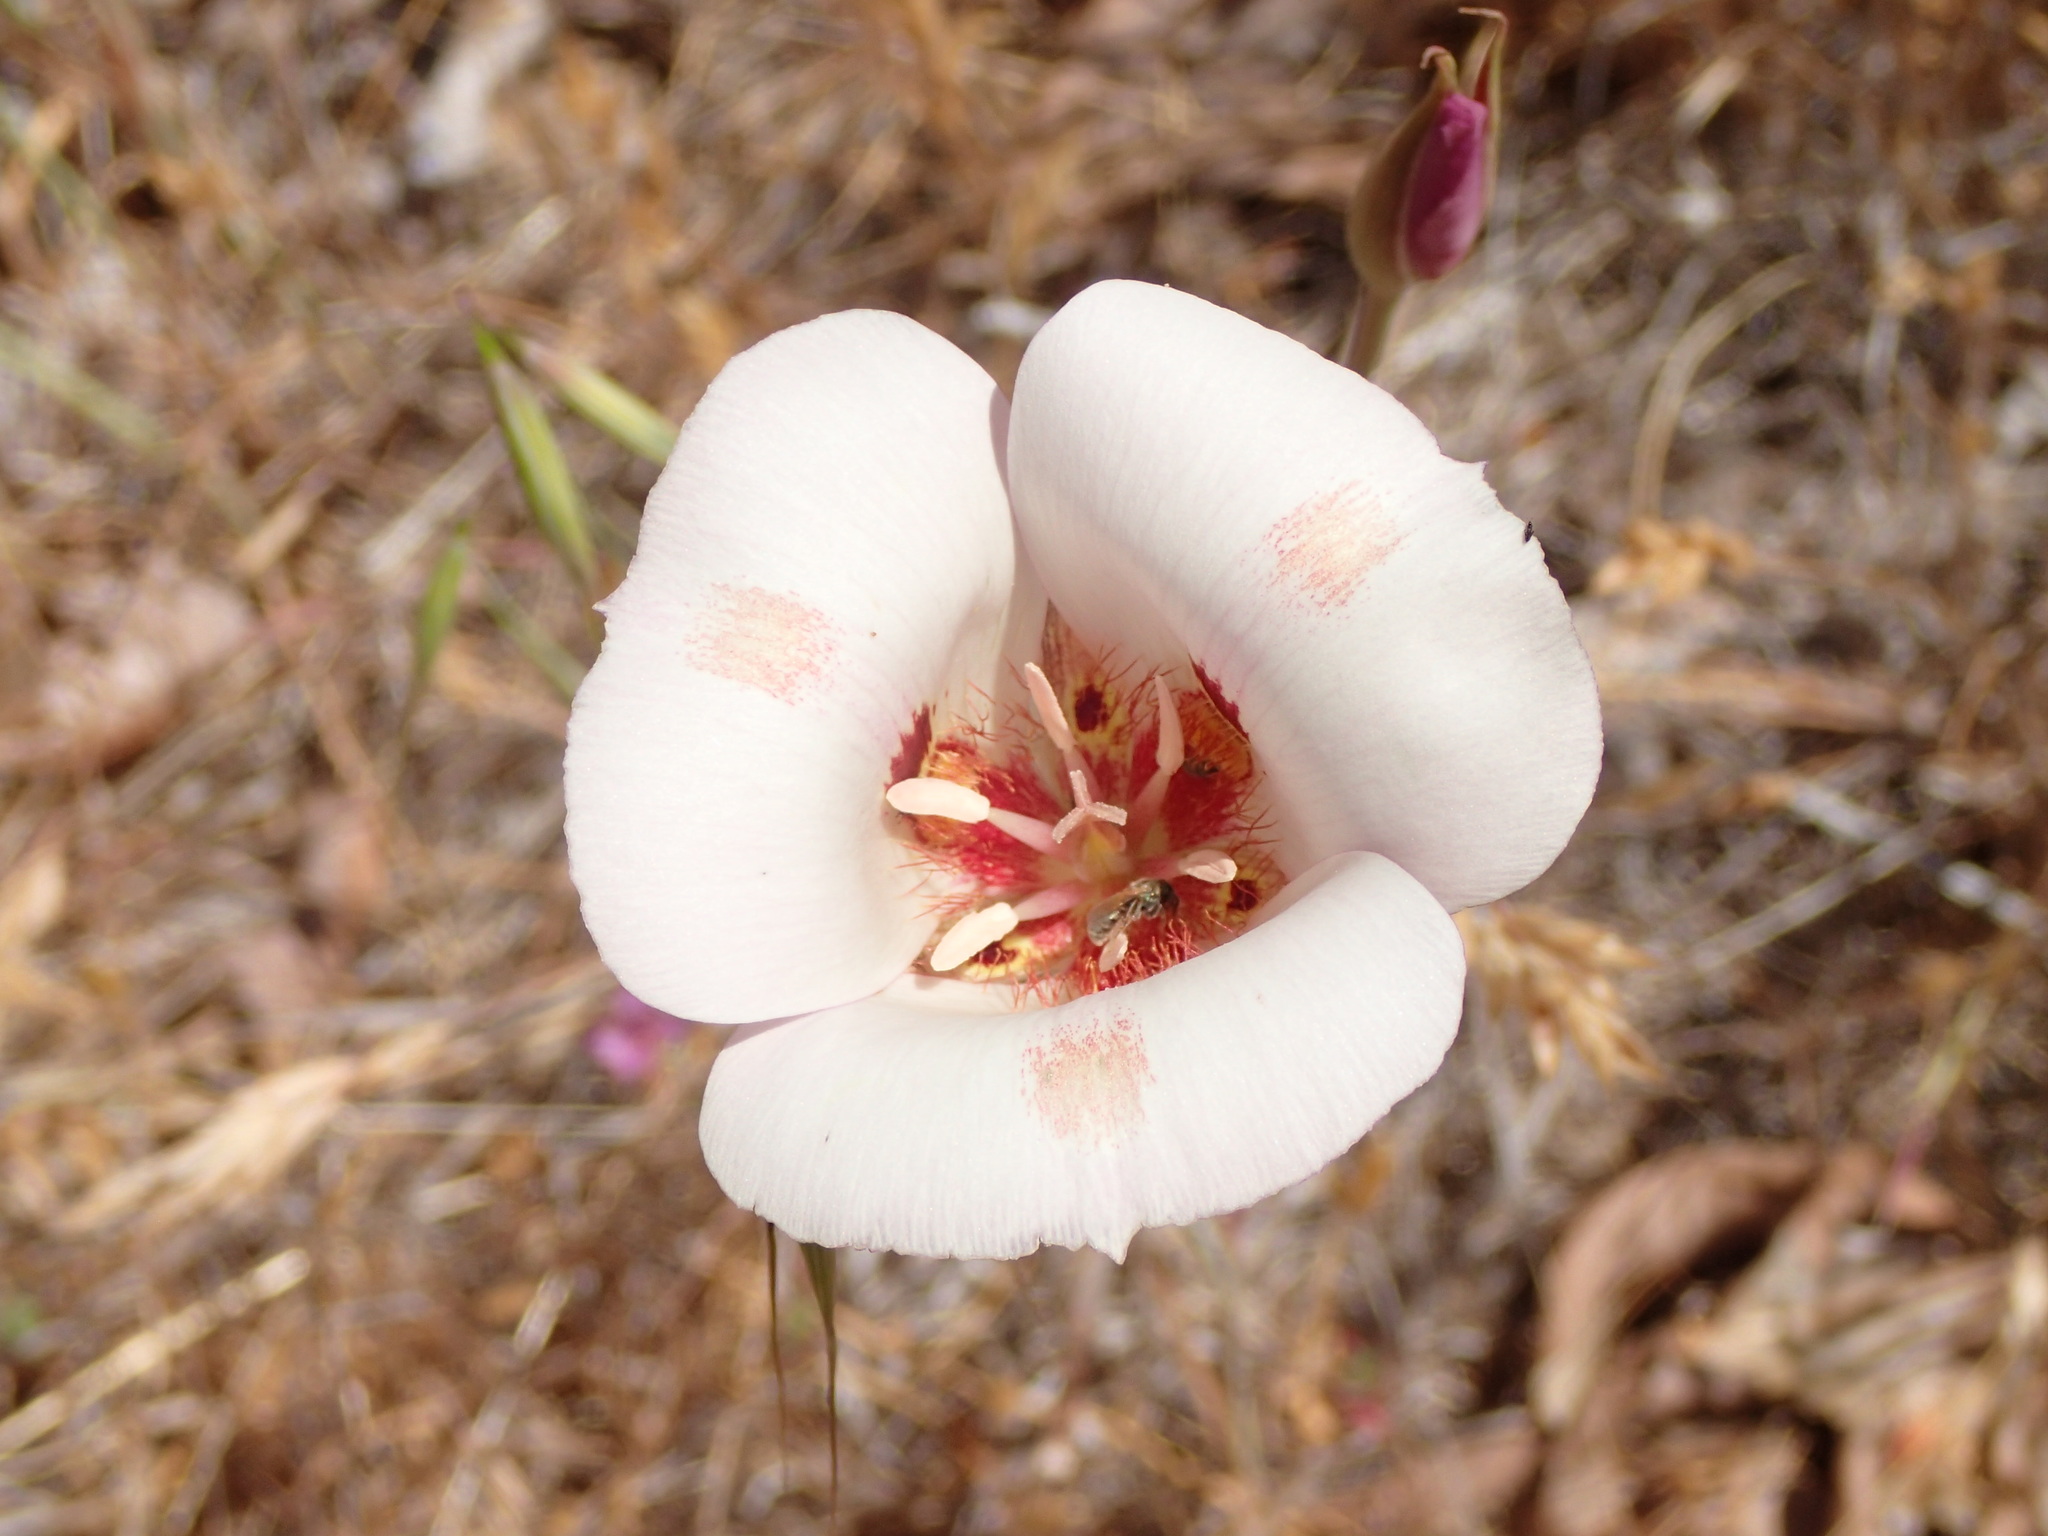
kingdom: Plantae
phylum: Tracheophyta
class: Liliopsida
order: Liliales
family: Liliaceae
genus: Calochortus
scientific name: Calochortus venustus
